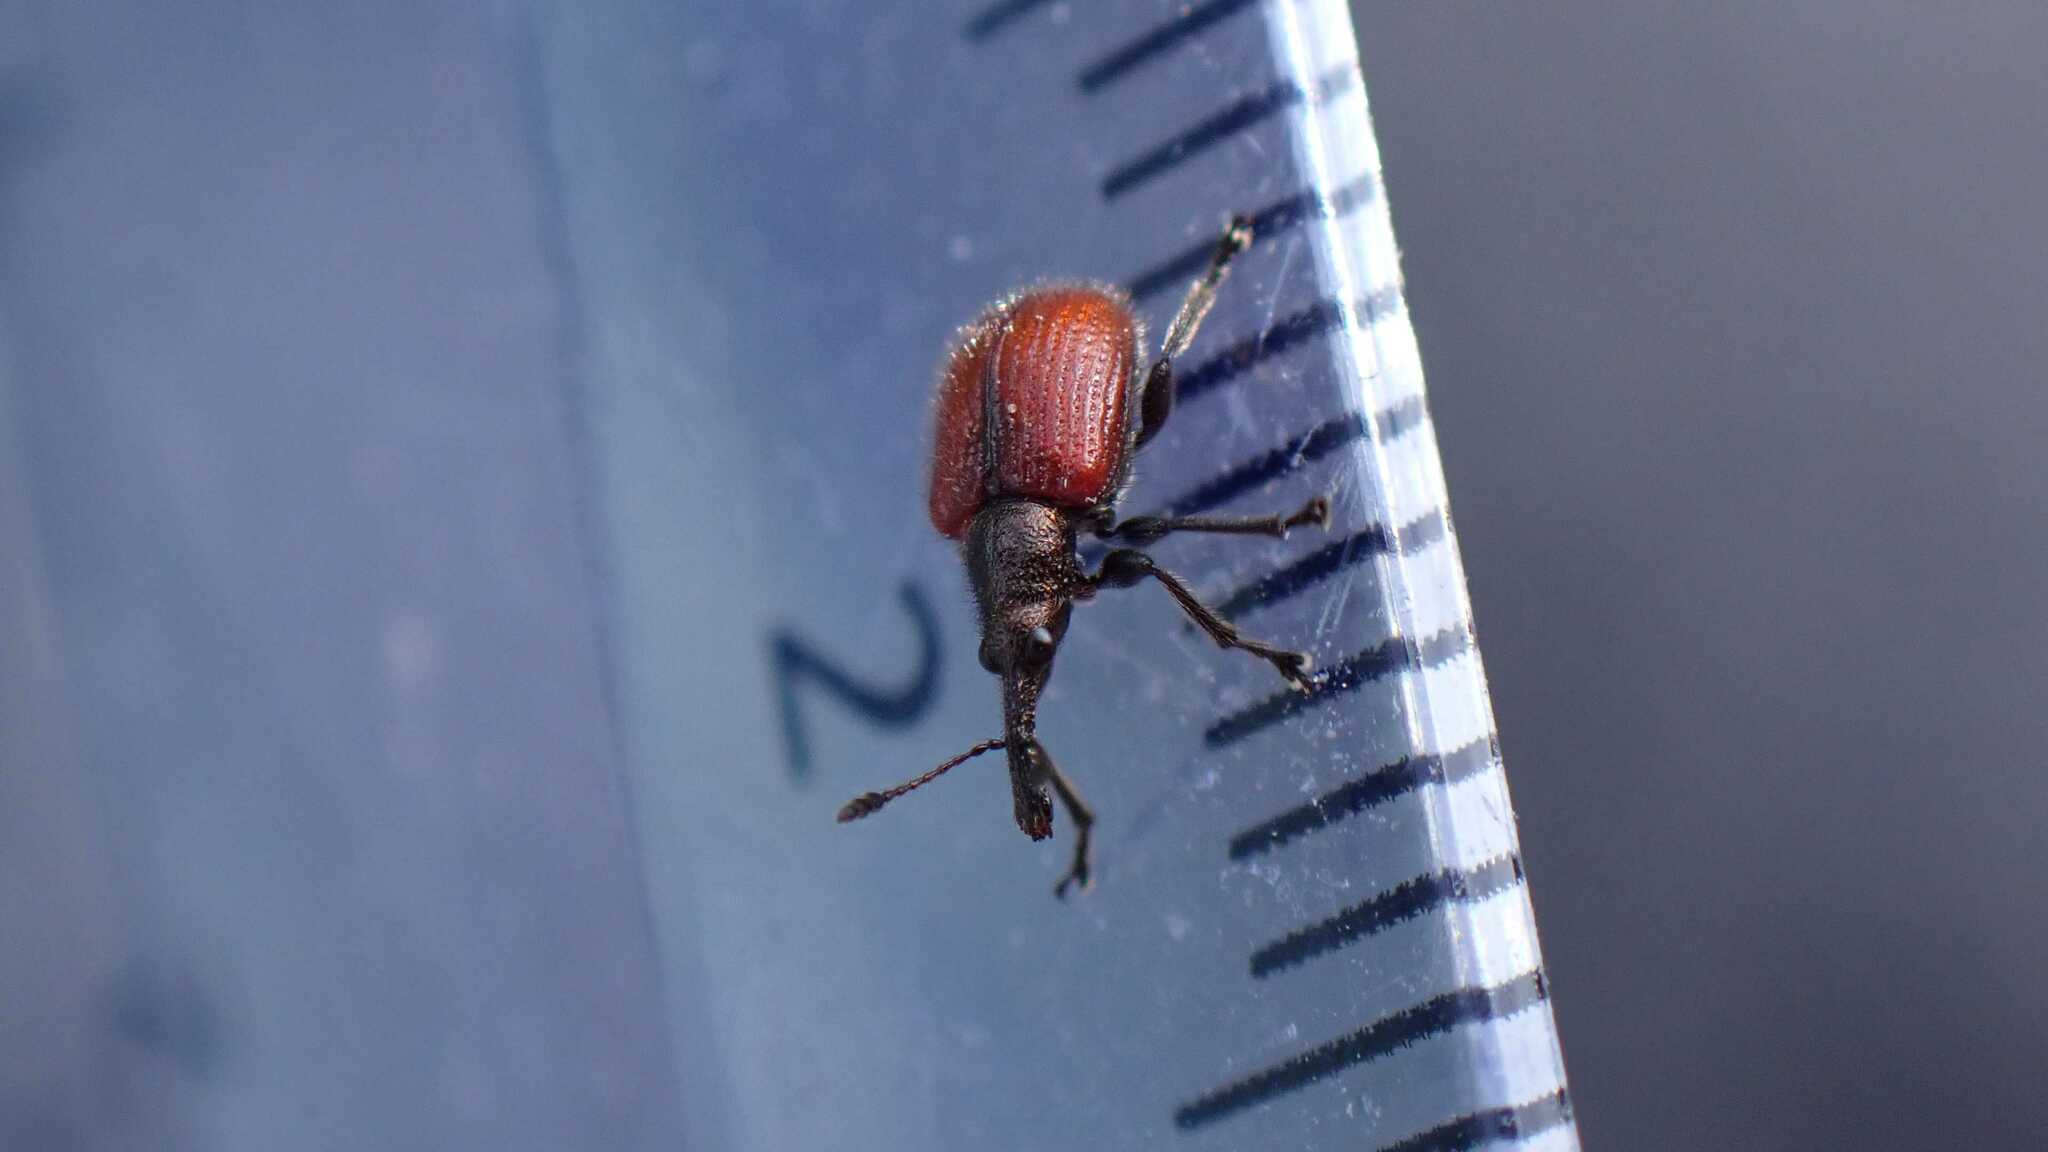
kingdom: Animalia
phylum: Arthropoda
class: Insecta
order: Coleoptera
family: Rhynchitidae
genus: Tatianaerhynchites
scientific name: Tatianaerhynchites aequatus
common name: Apple fruit rhynchites
